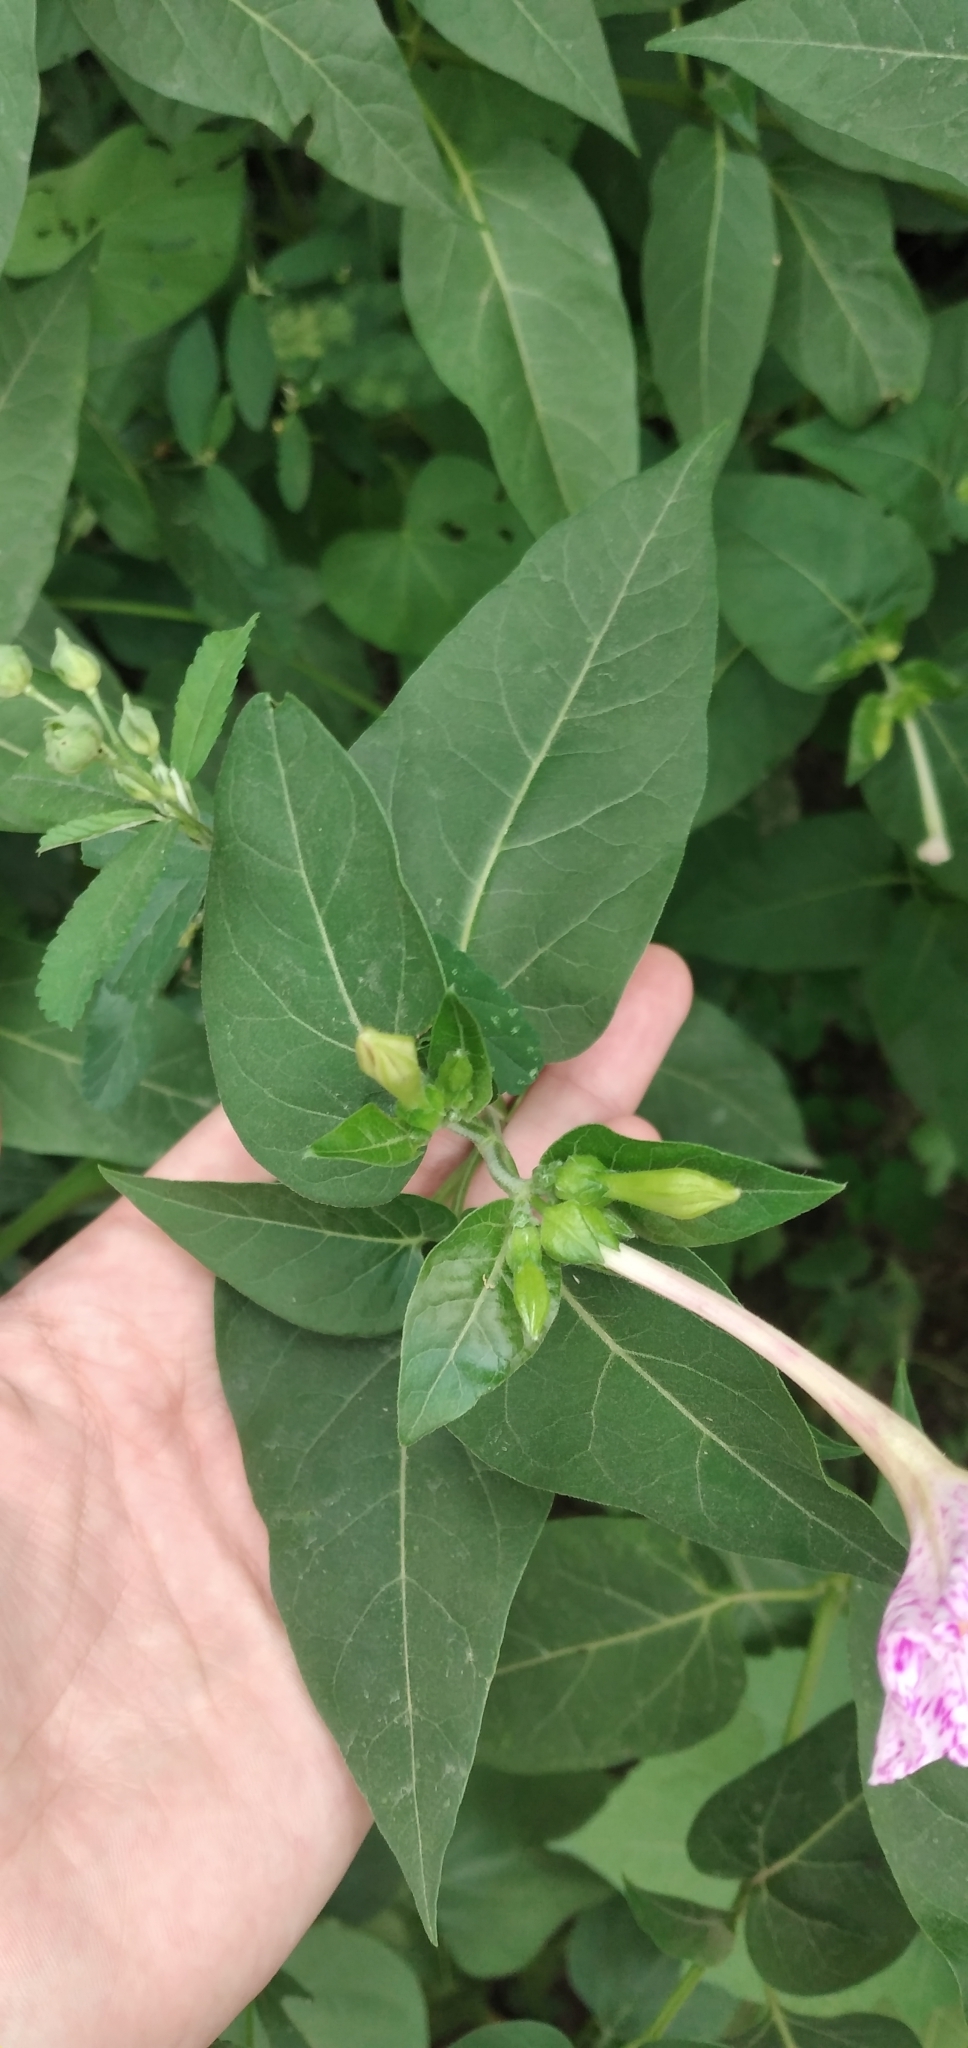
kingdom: Plantae
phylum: Tracheophyta
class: Magnoliopsida
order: Caryophyllales
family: Nyctaginaceae
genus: Mirabilis
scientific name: Mirabilis jalapa
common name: Marvel-of-peru
